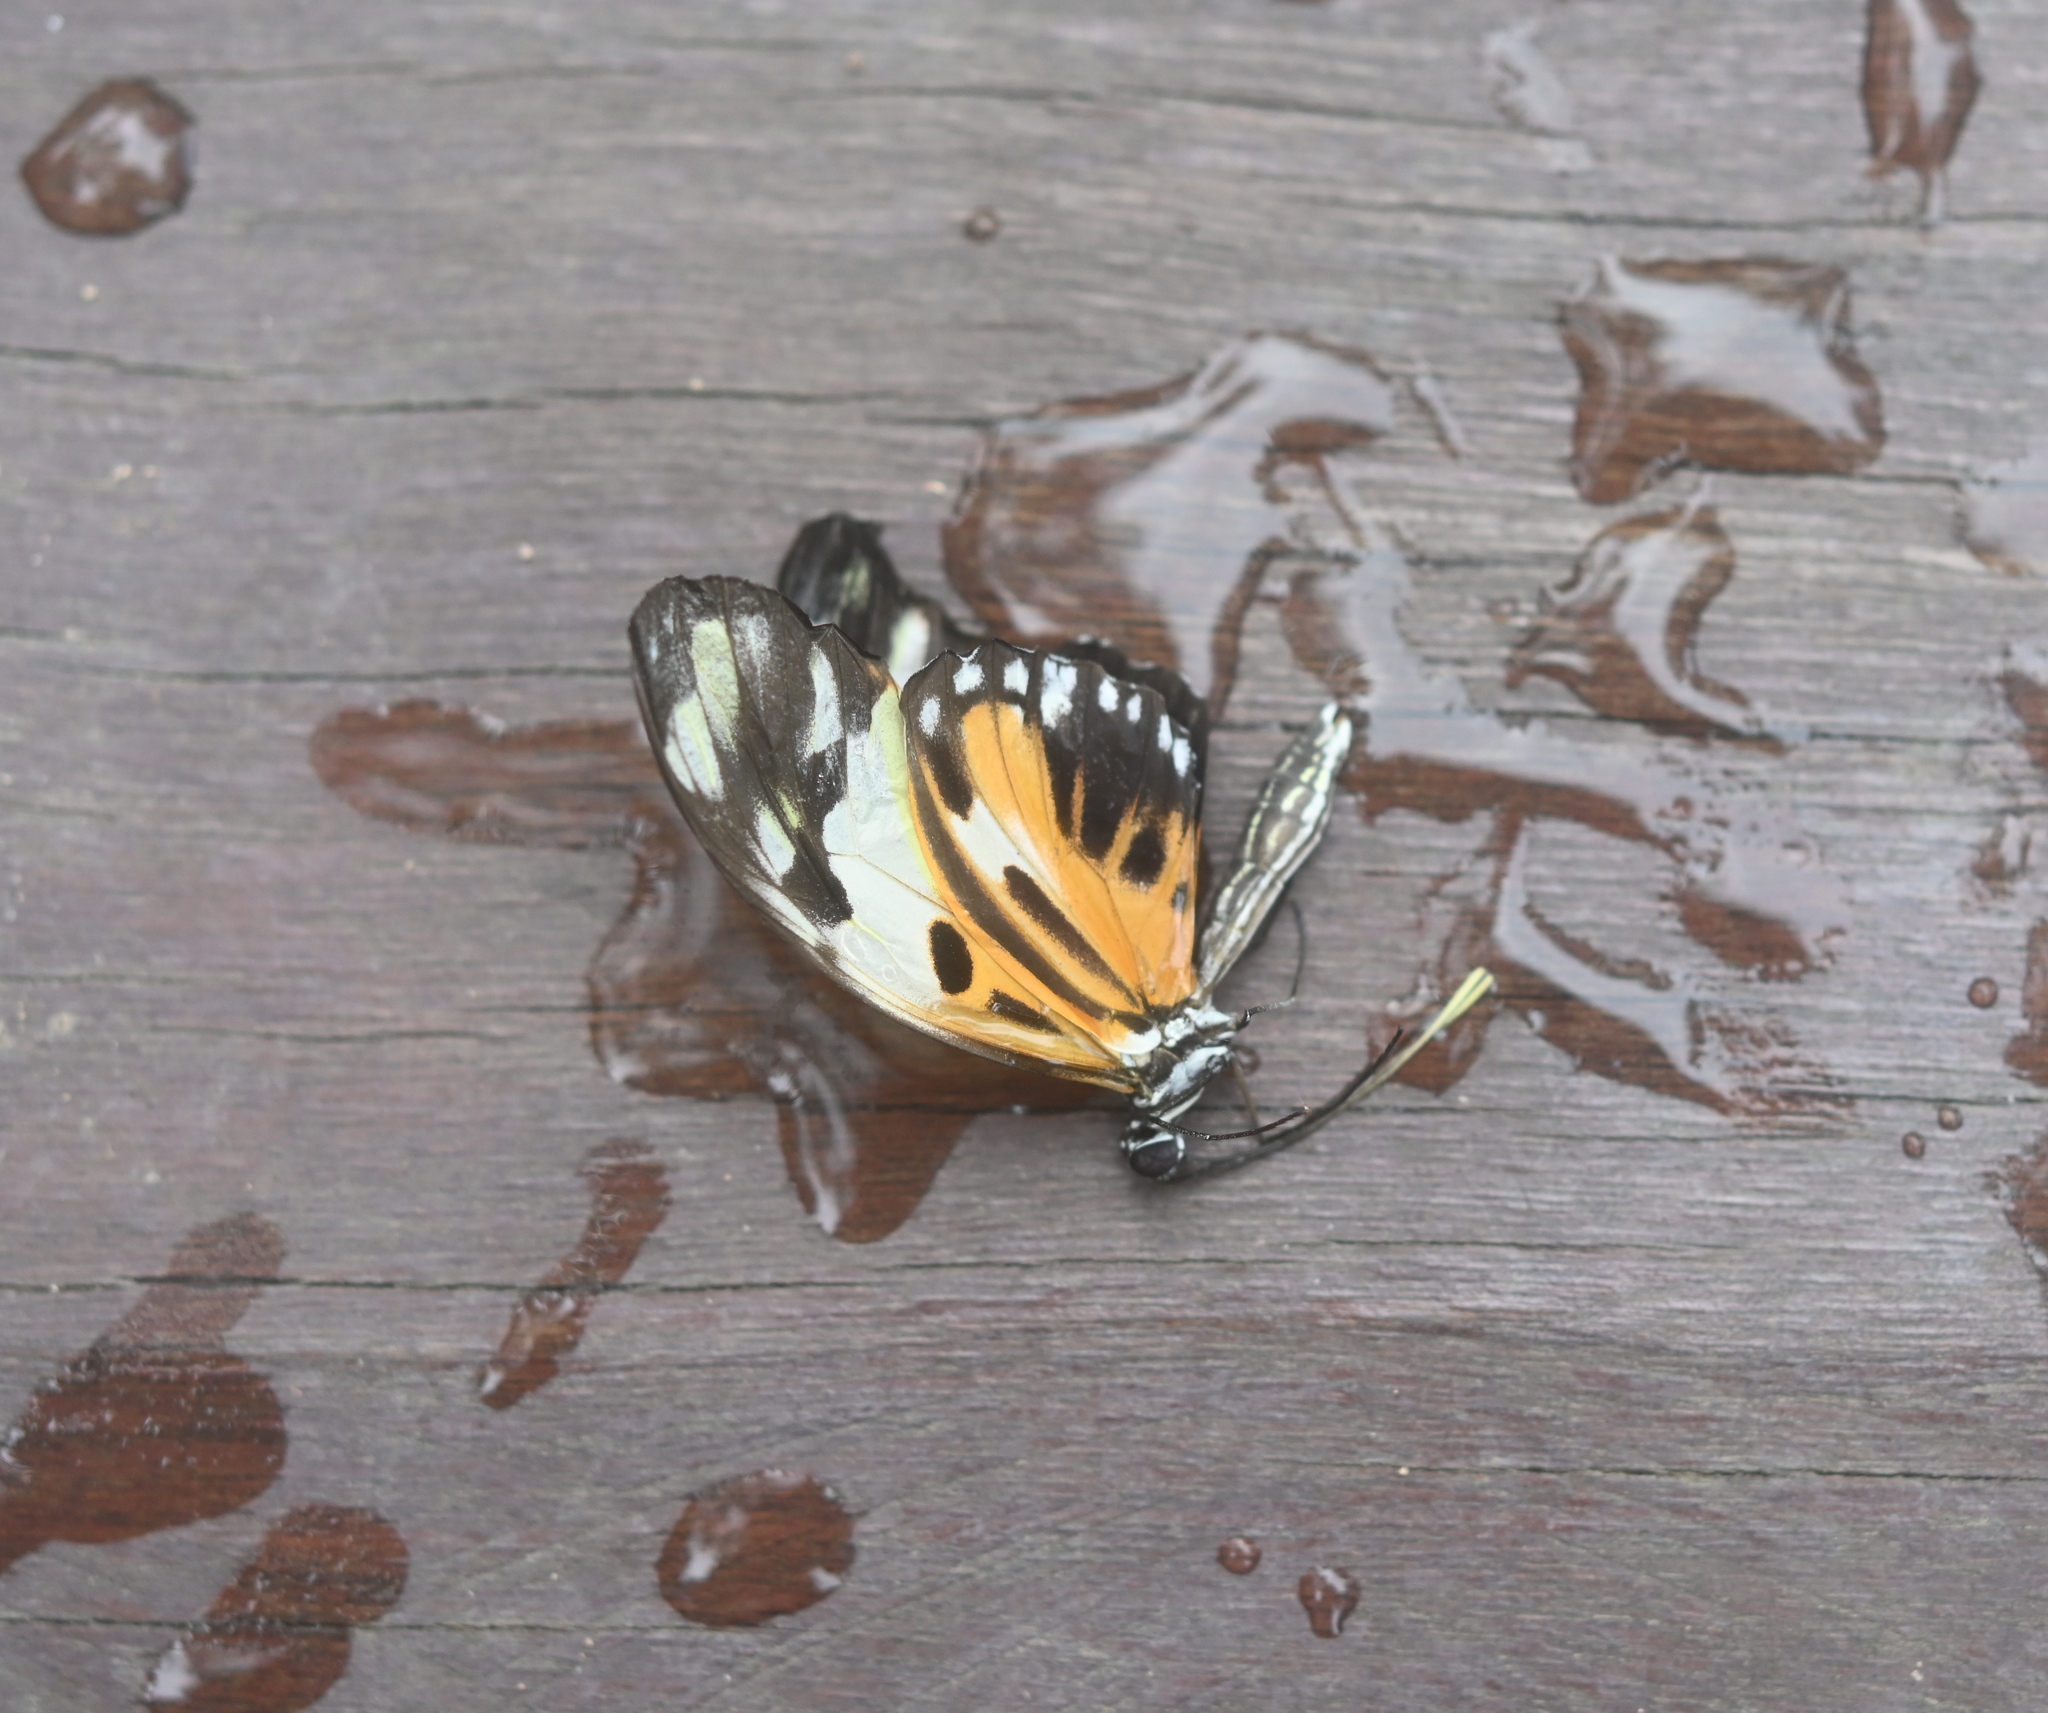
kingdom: Animalia
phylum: Arthropoda
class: Insecta
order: Lepidoptera
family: Nymphalidae
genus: Heliconius
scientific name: Heliconius numatus
